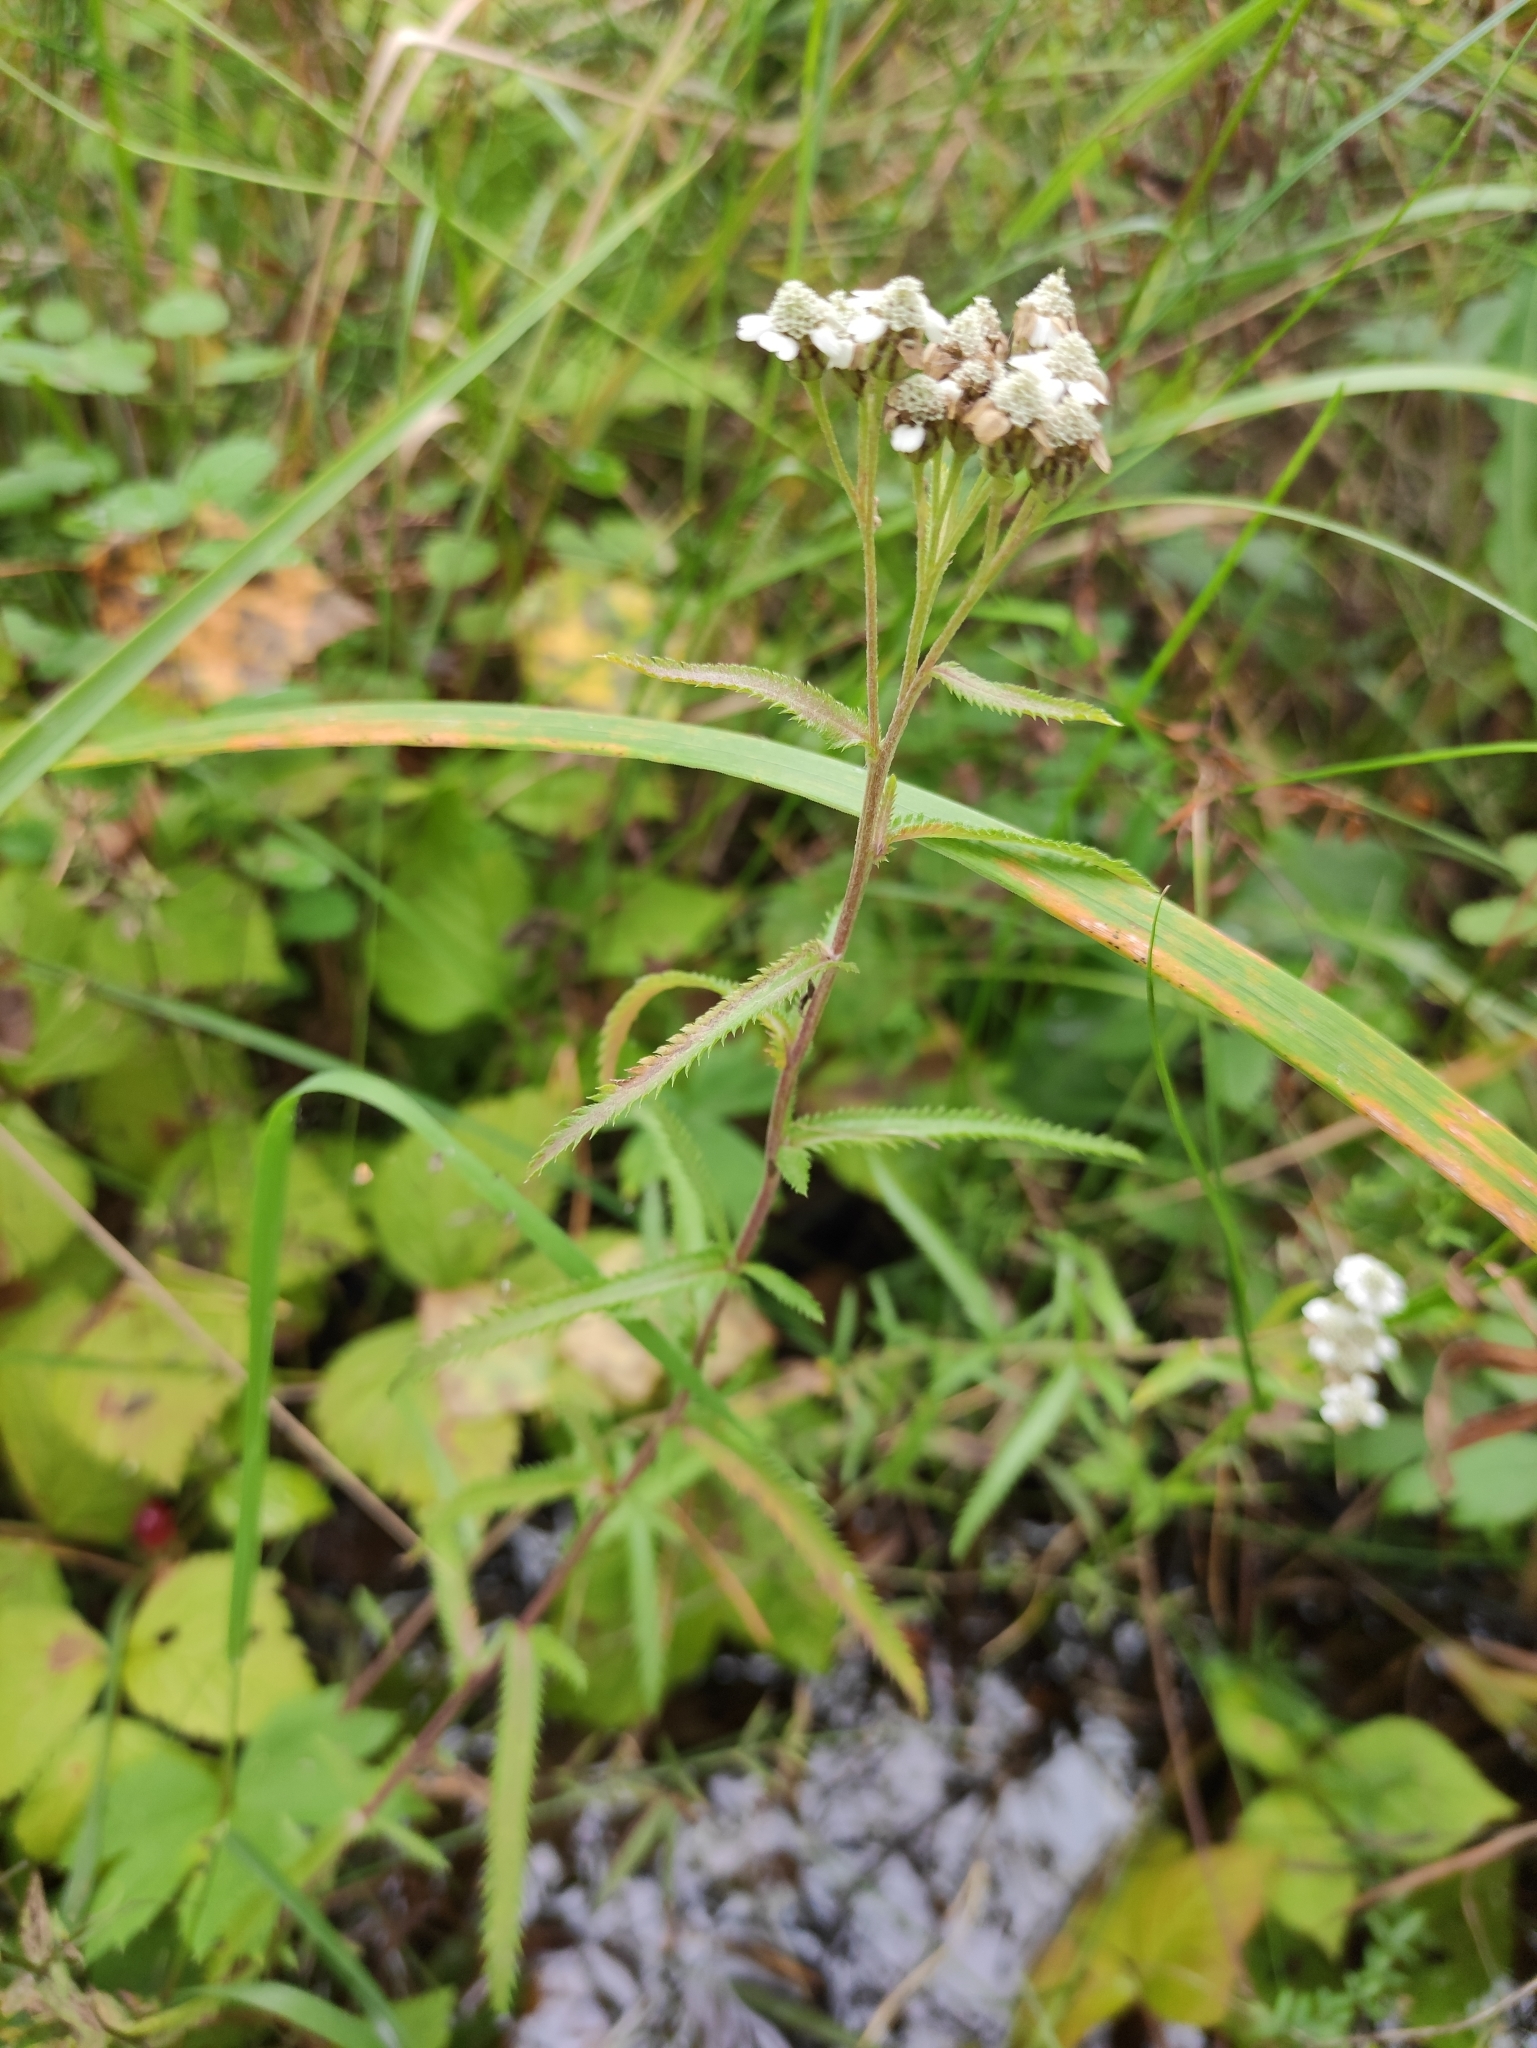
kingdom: Plantae
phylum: Tracheophyta
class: Magnoliopsida
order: Asterales
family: Asteraceae
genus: Achillea
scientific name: Achillea alpina
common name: Siberian yarrow
